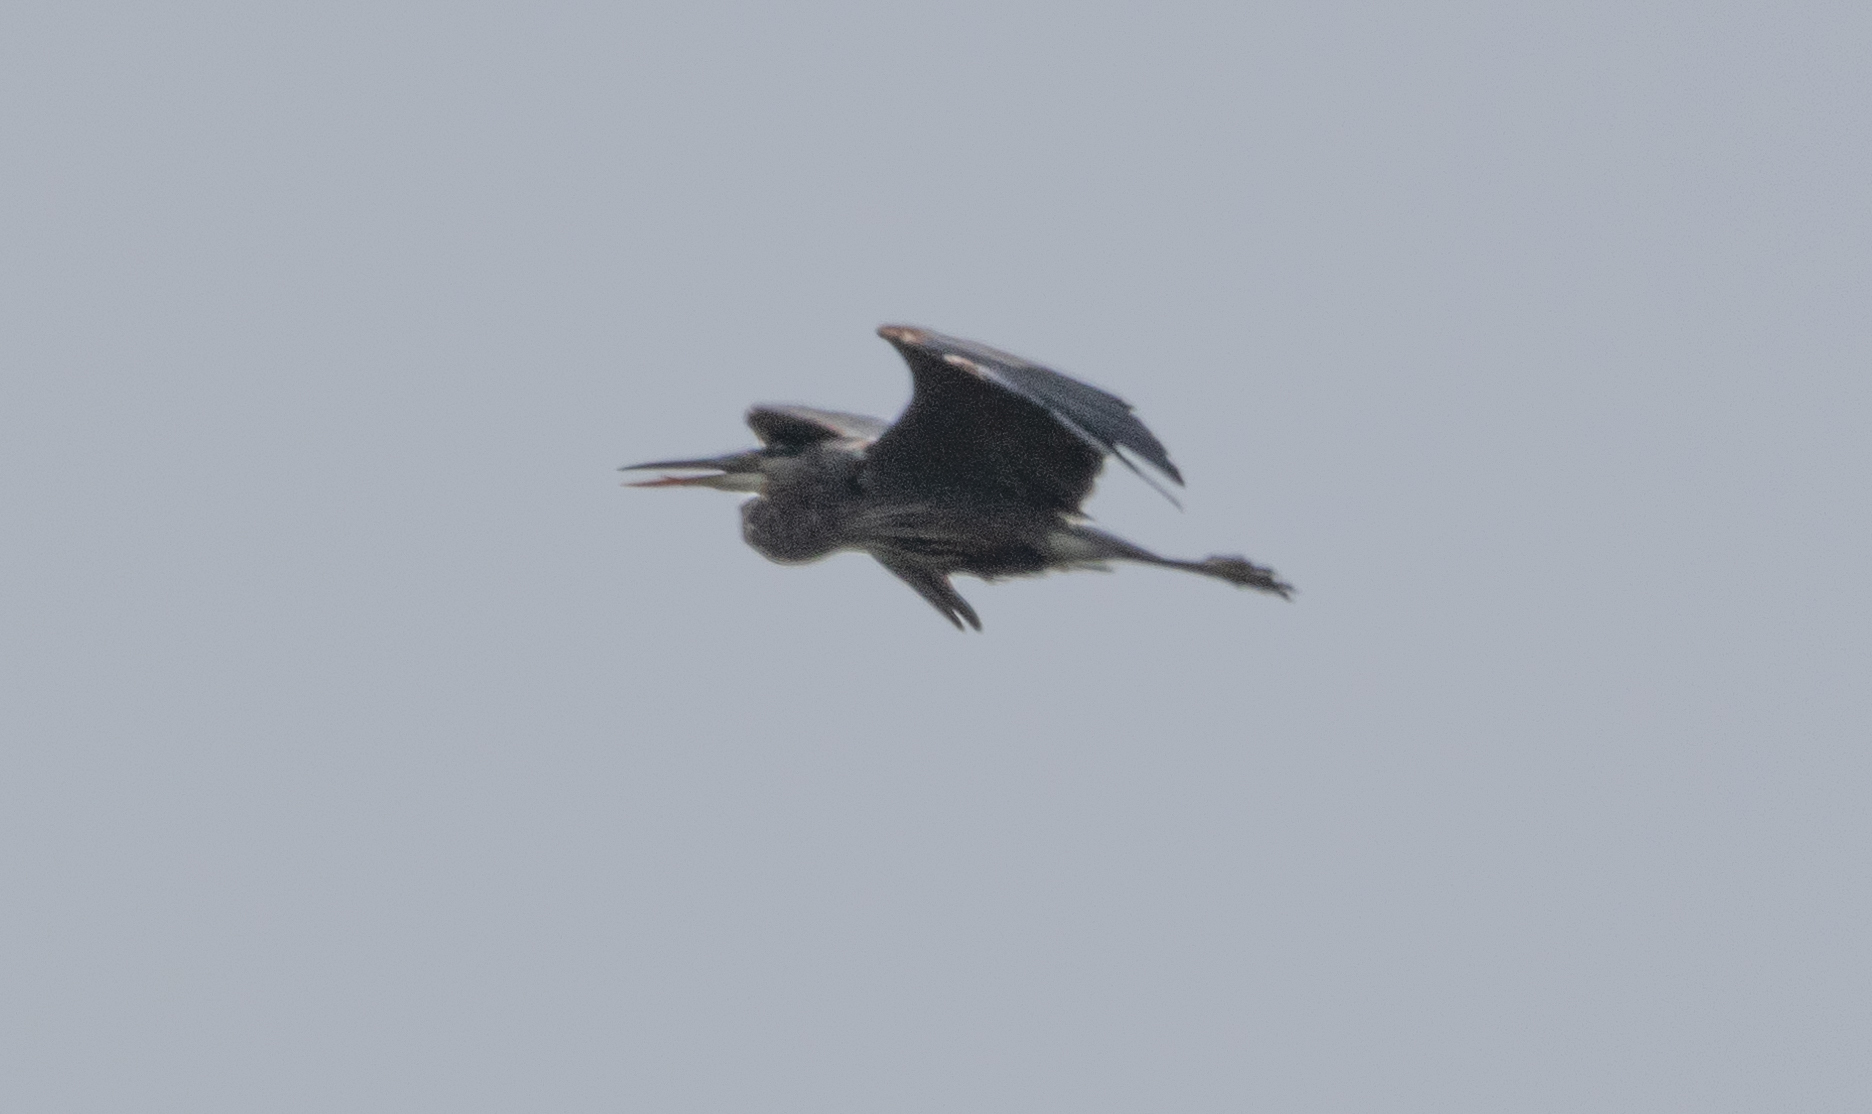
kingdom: Animalia
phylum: Chordata
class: Aves
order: Pelecaniformes
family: Ardeidae
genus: Ardea
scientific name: Ardea herodias
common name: Great blue heron
